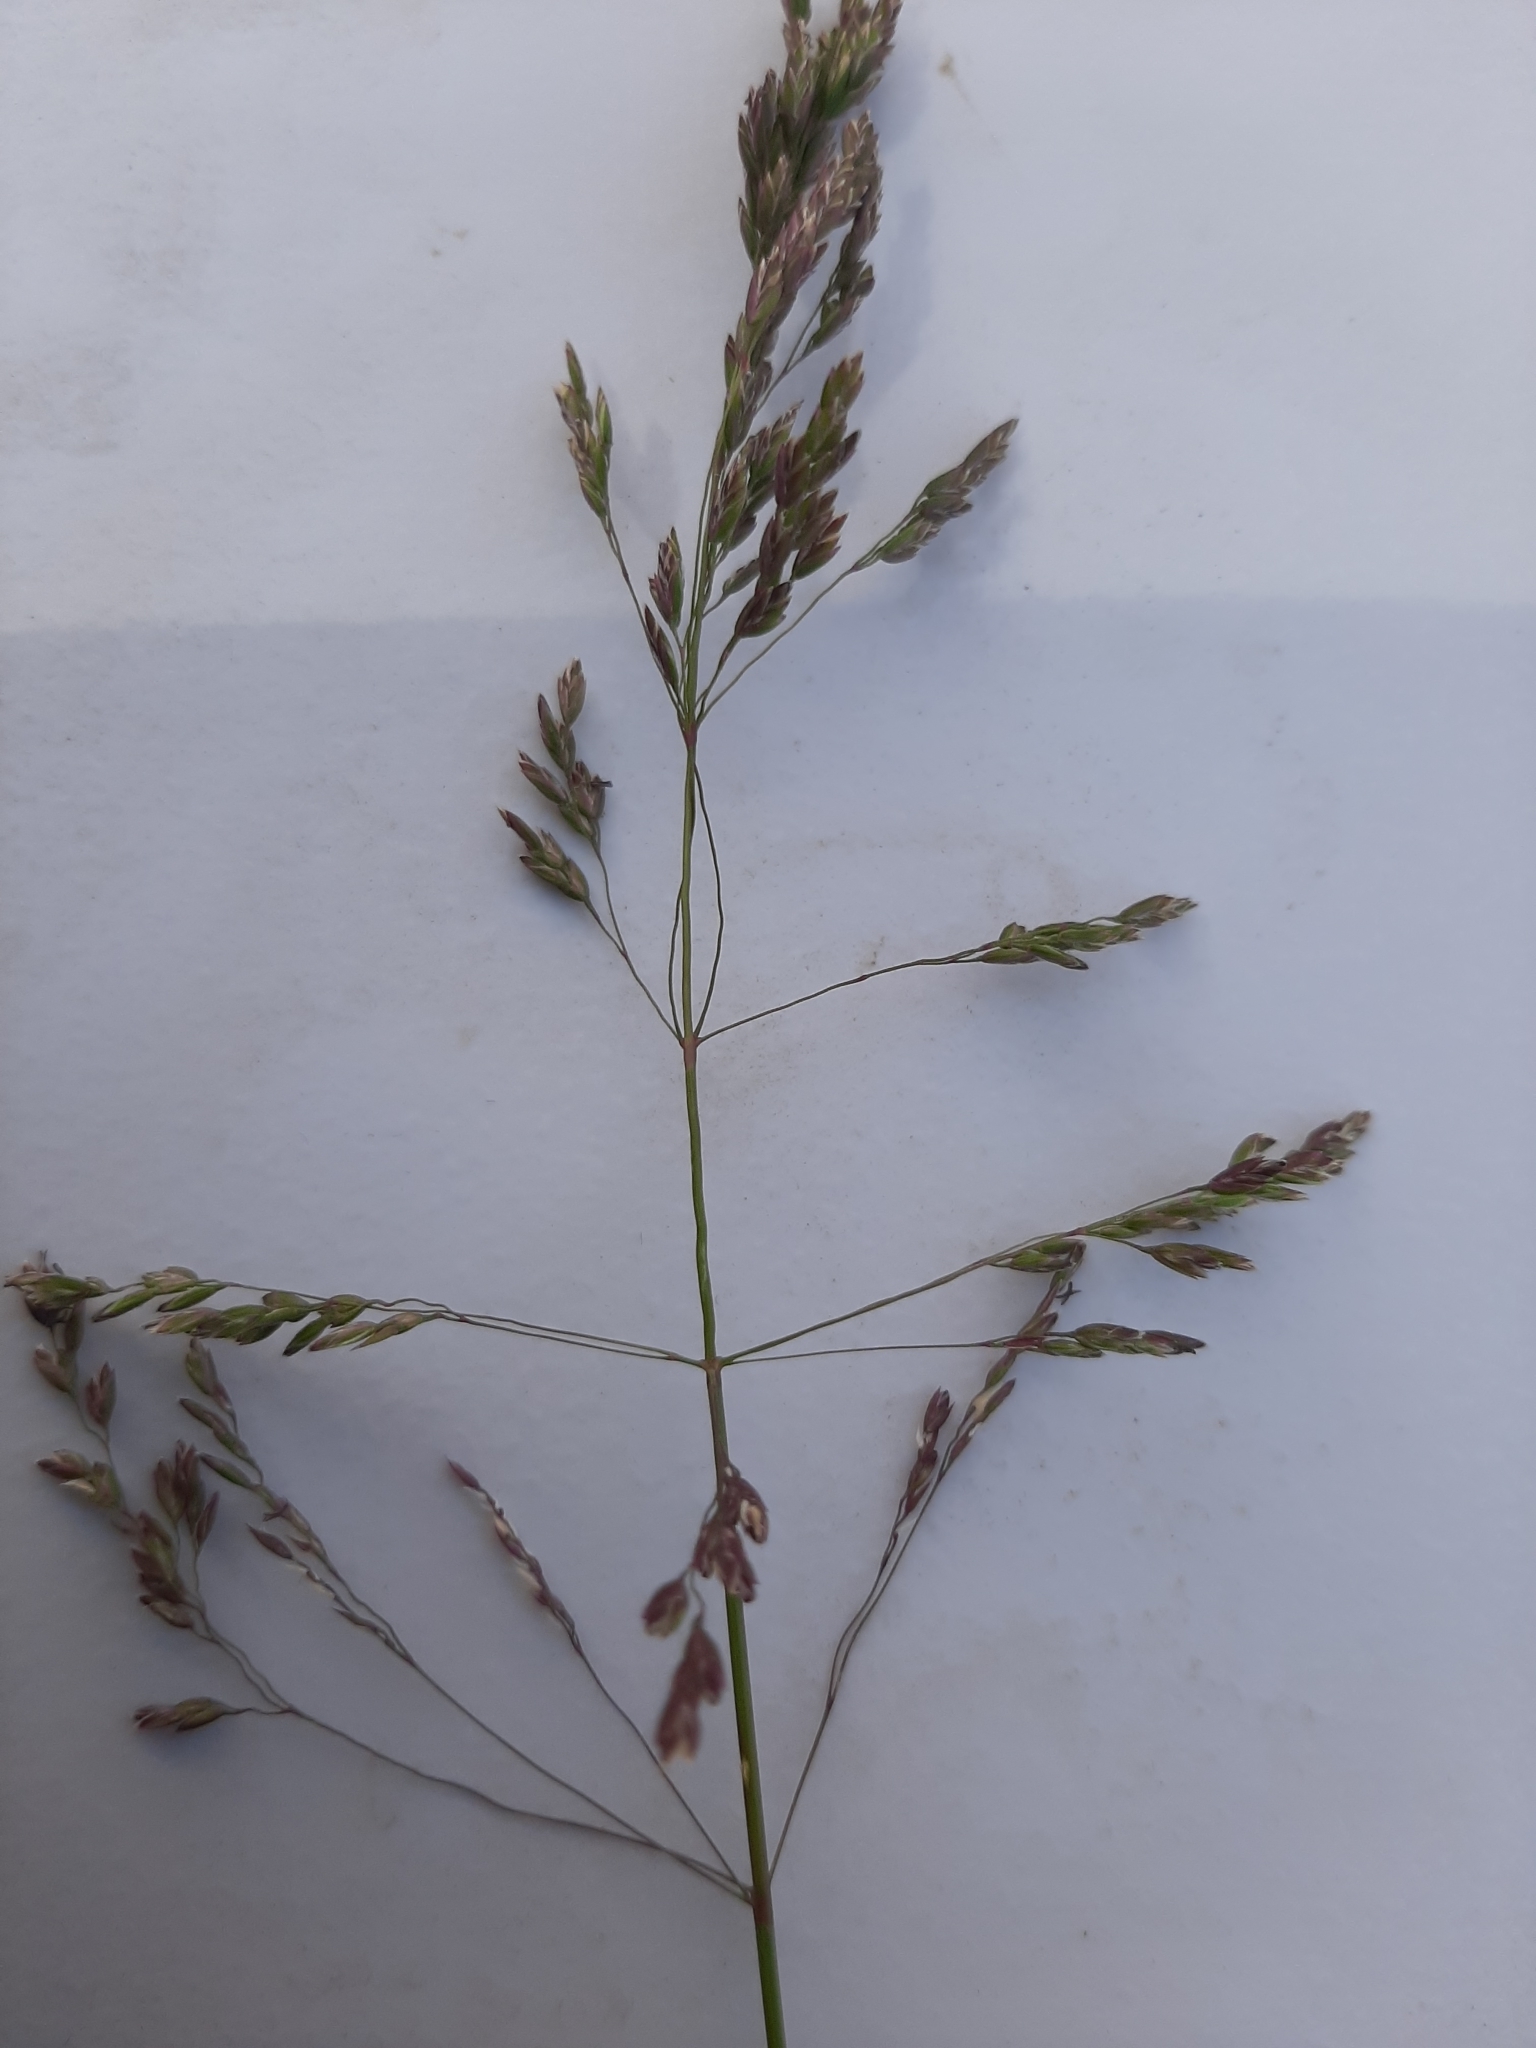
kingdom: Plantae
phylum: Tracheophyta
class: Liliopsida
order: Poales
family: Poaceae
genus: Poa
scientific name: Poa pratensis
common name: Kentucky bluegrass
